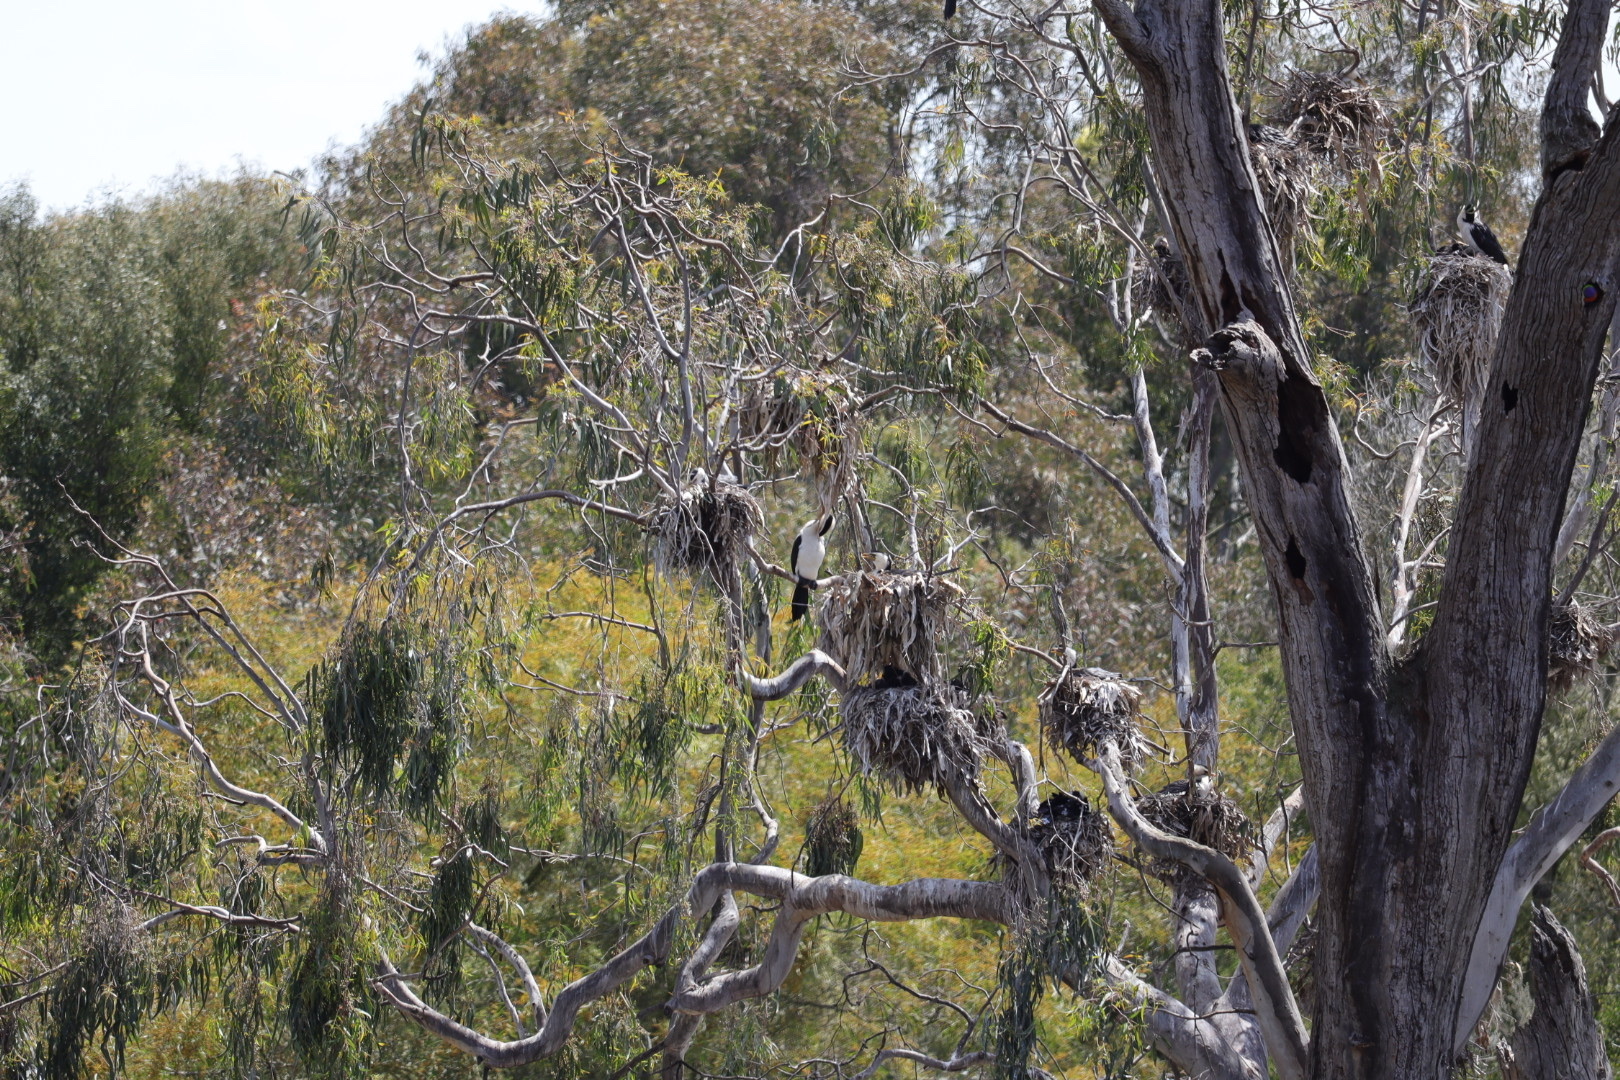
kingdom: Animalia
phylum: Chordata
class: Aves
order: Suliformes
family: Phalacrocoracidae
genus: Microcarbo
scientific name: Microcarbo melanoleucos
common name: Little pied cormorant
